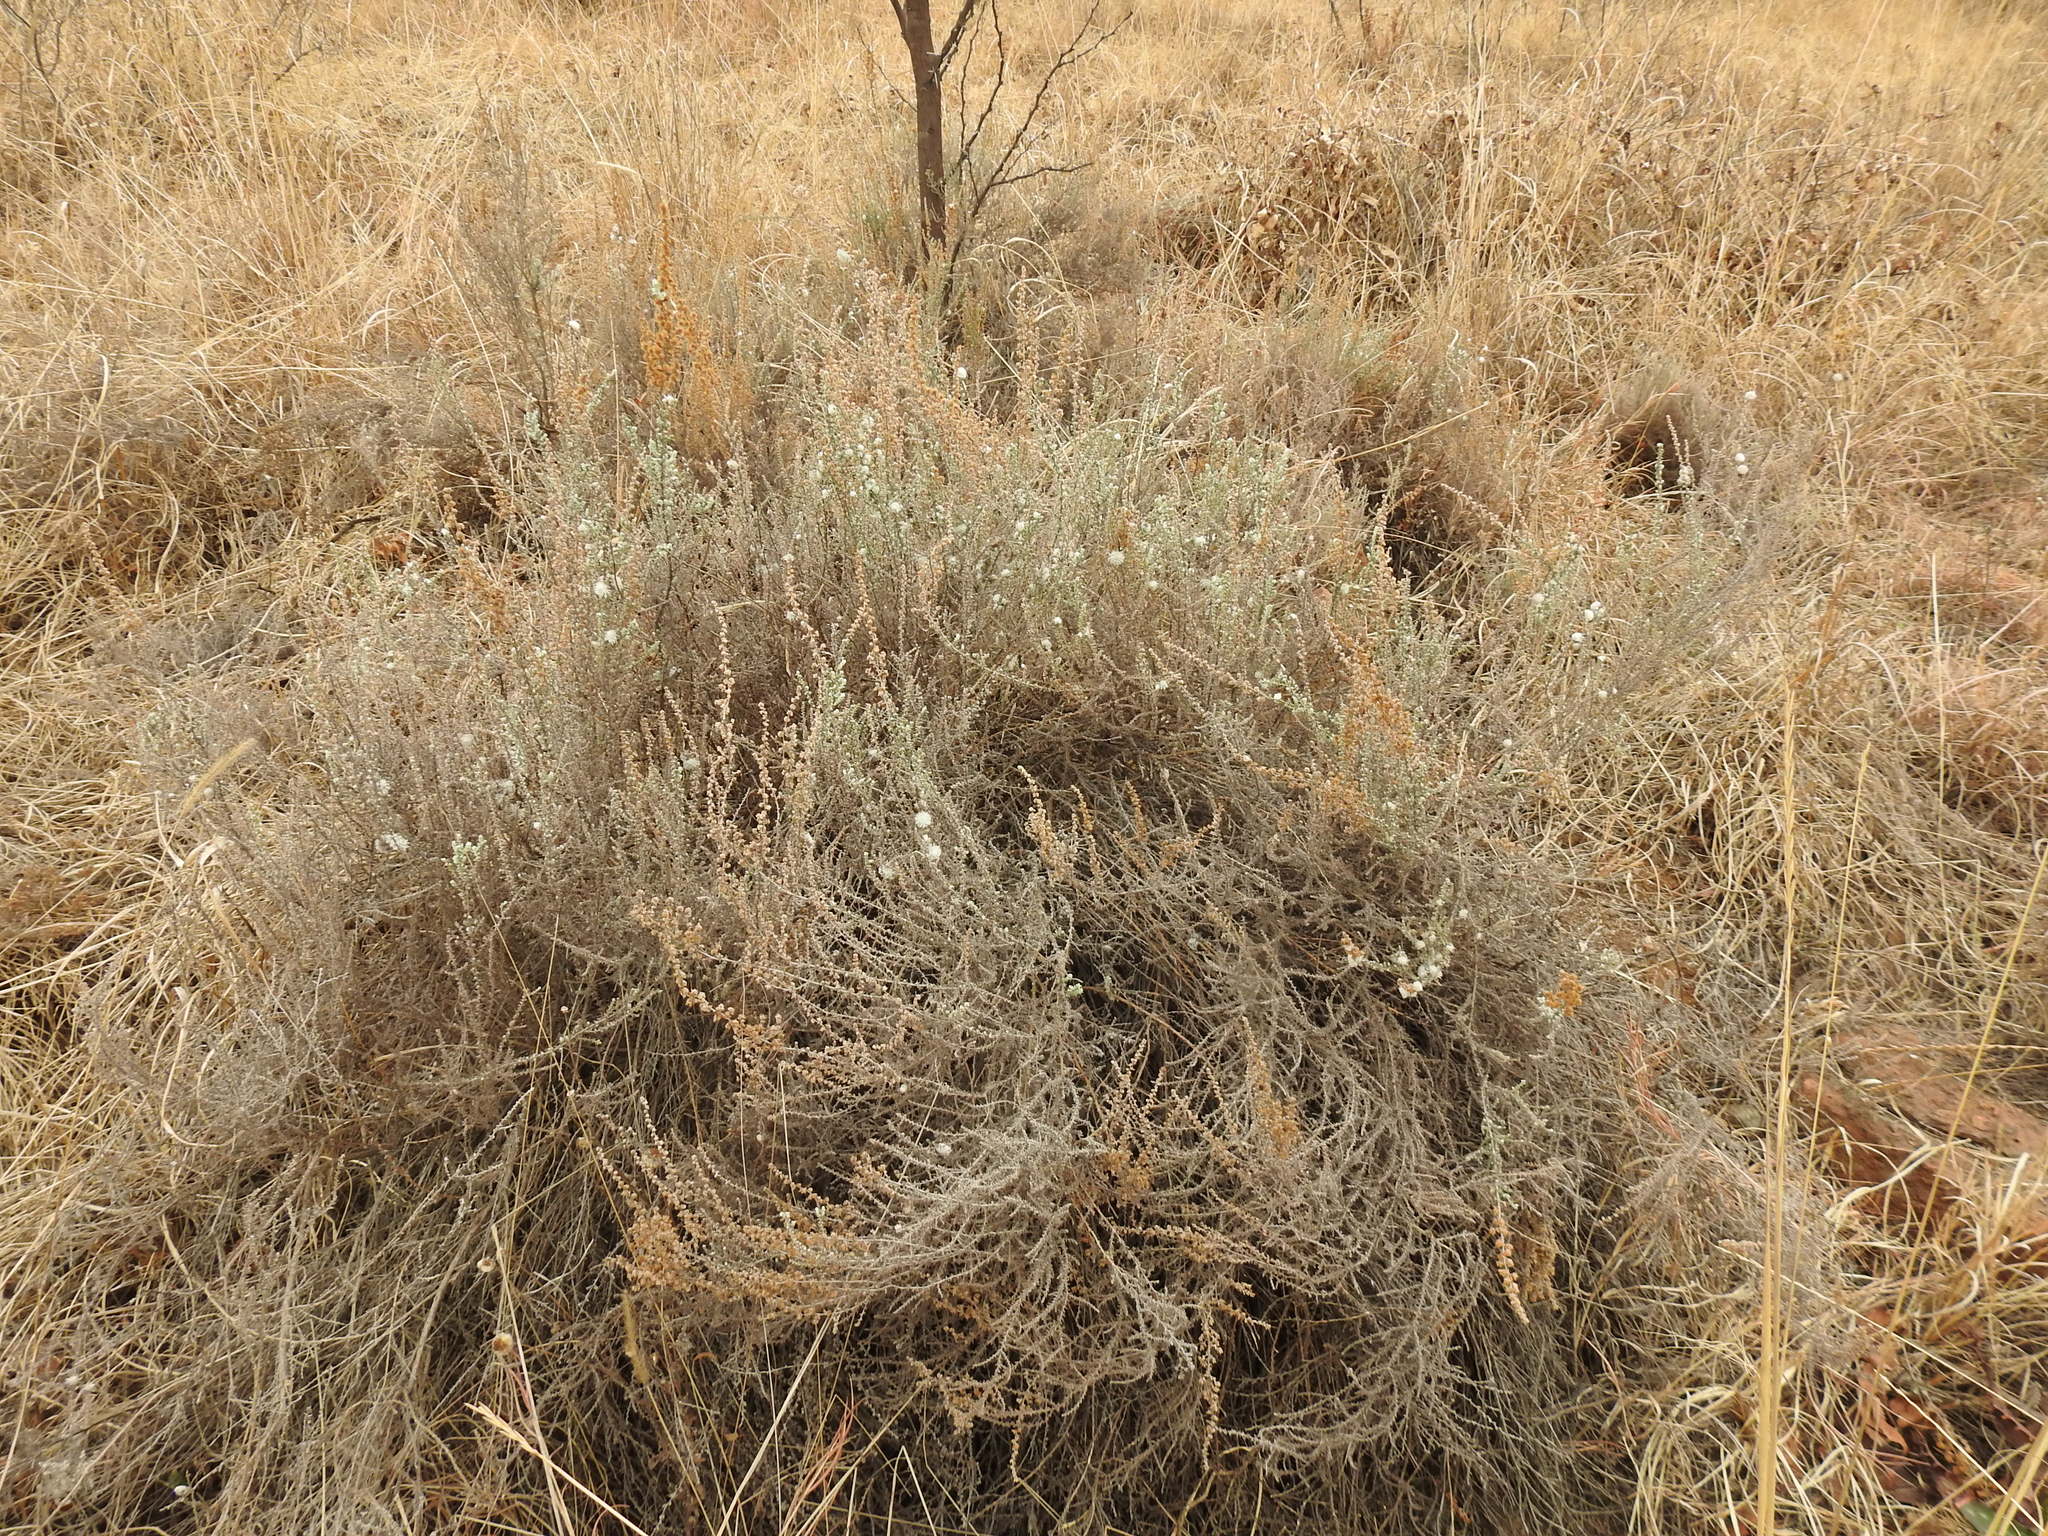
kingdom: Plantae
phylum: Tracheophyta
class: Magnoliopsida
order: Asterales
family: Asteraceae
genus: Seriphium
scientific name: Seriphium
